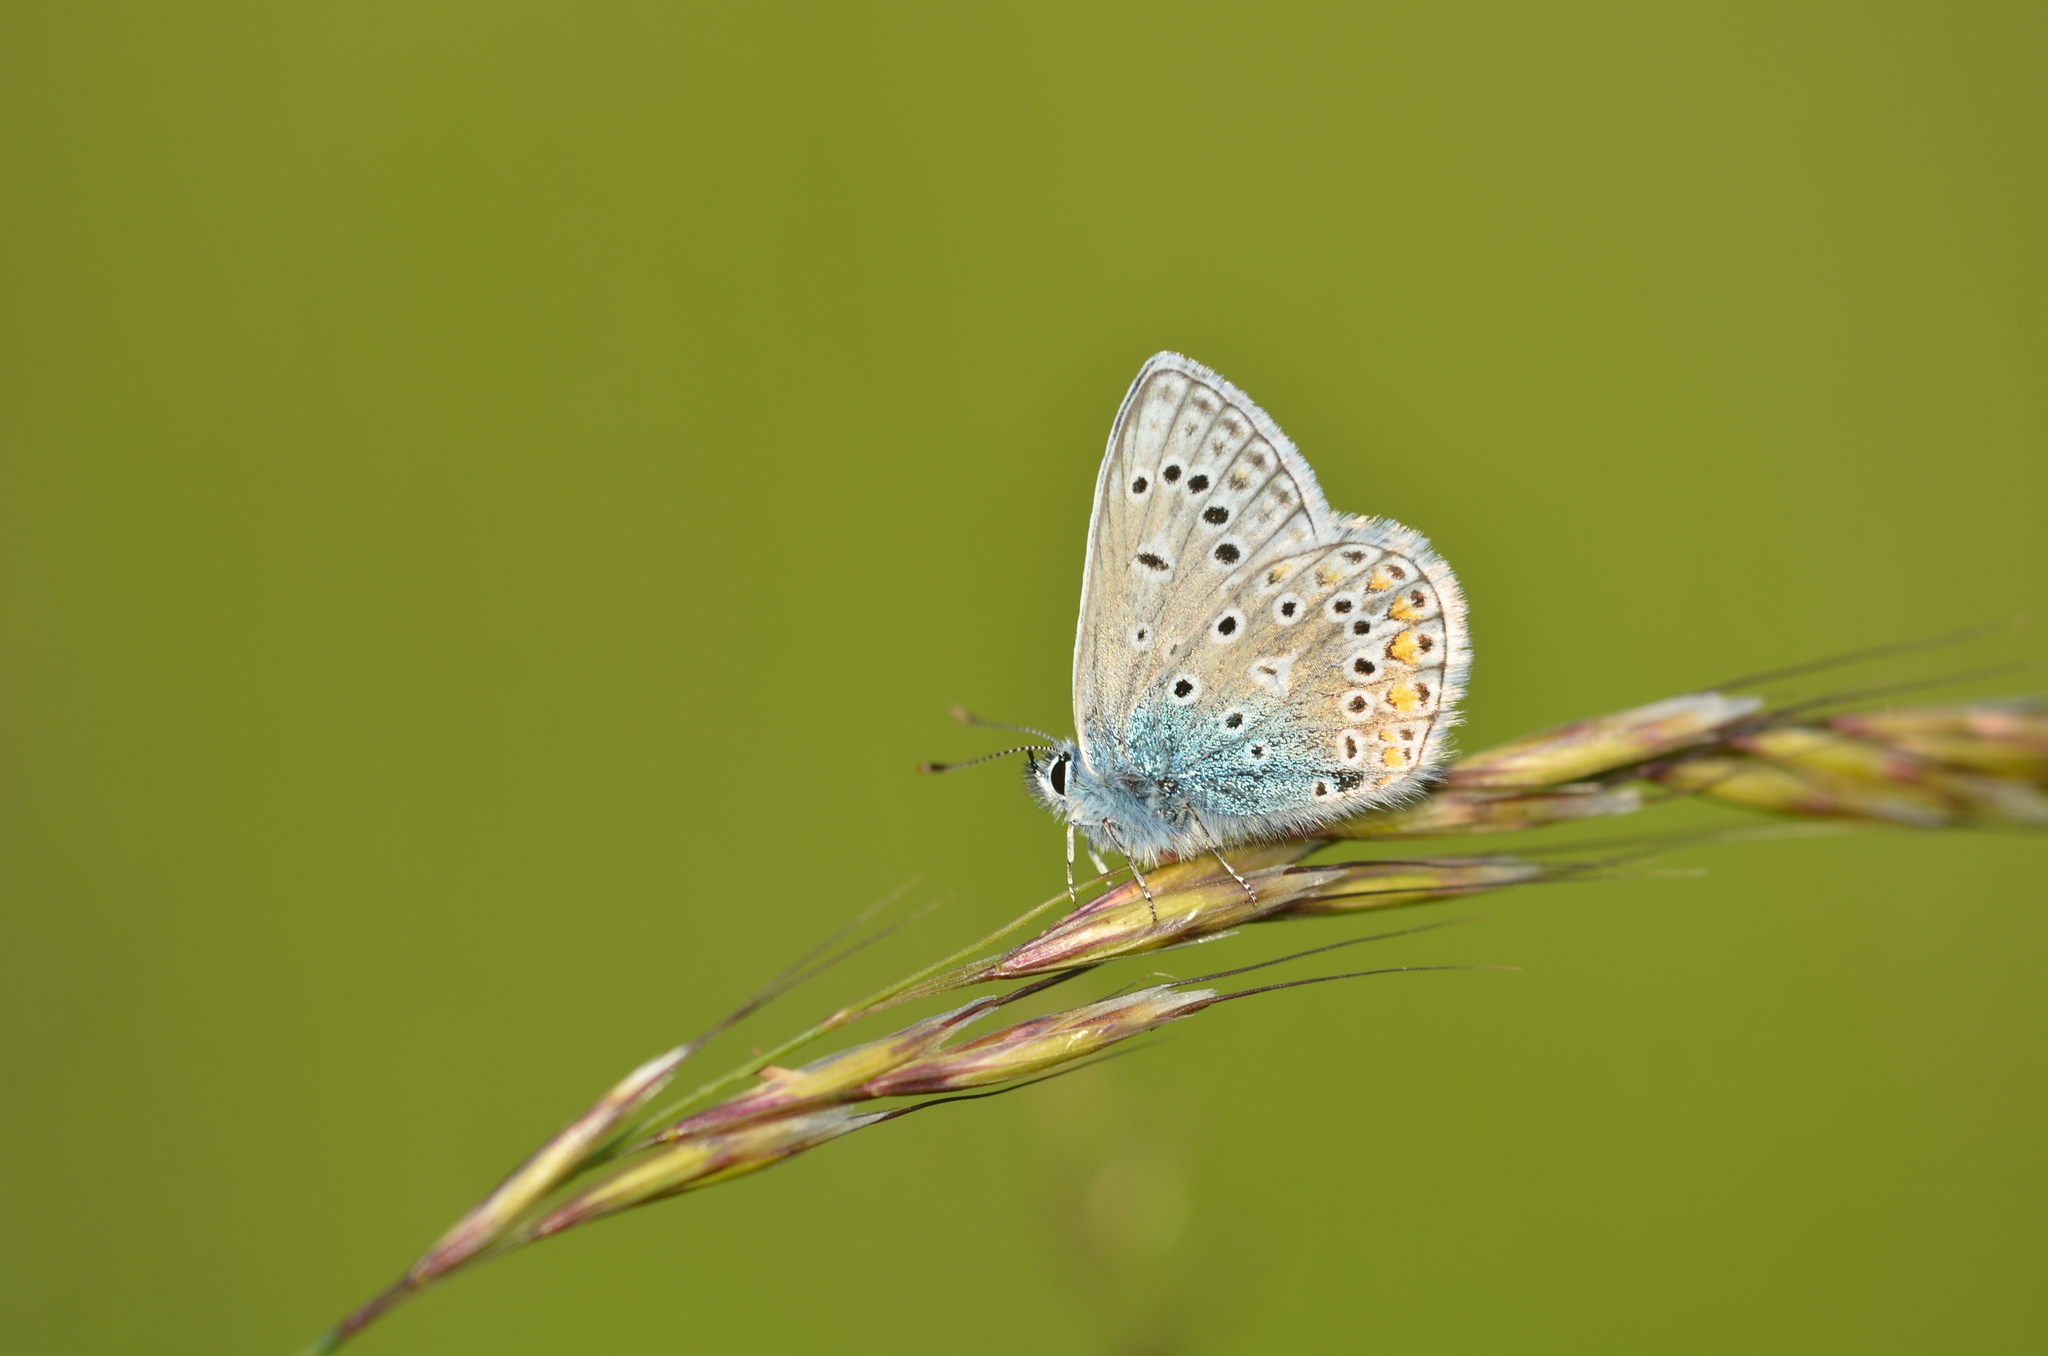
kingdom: Animalia
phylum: Arthropoda
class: Insecta
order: Lepidoptera
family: Lycaenidae
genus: Polyommatus
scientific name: Polyommatus icarus
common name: Common blue
